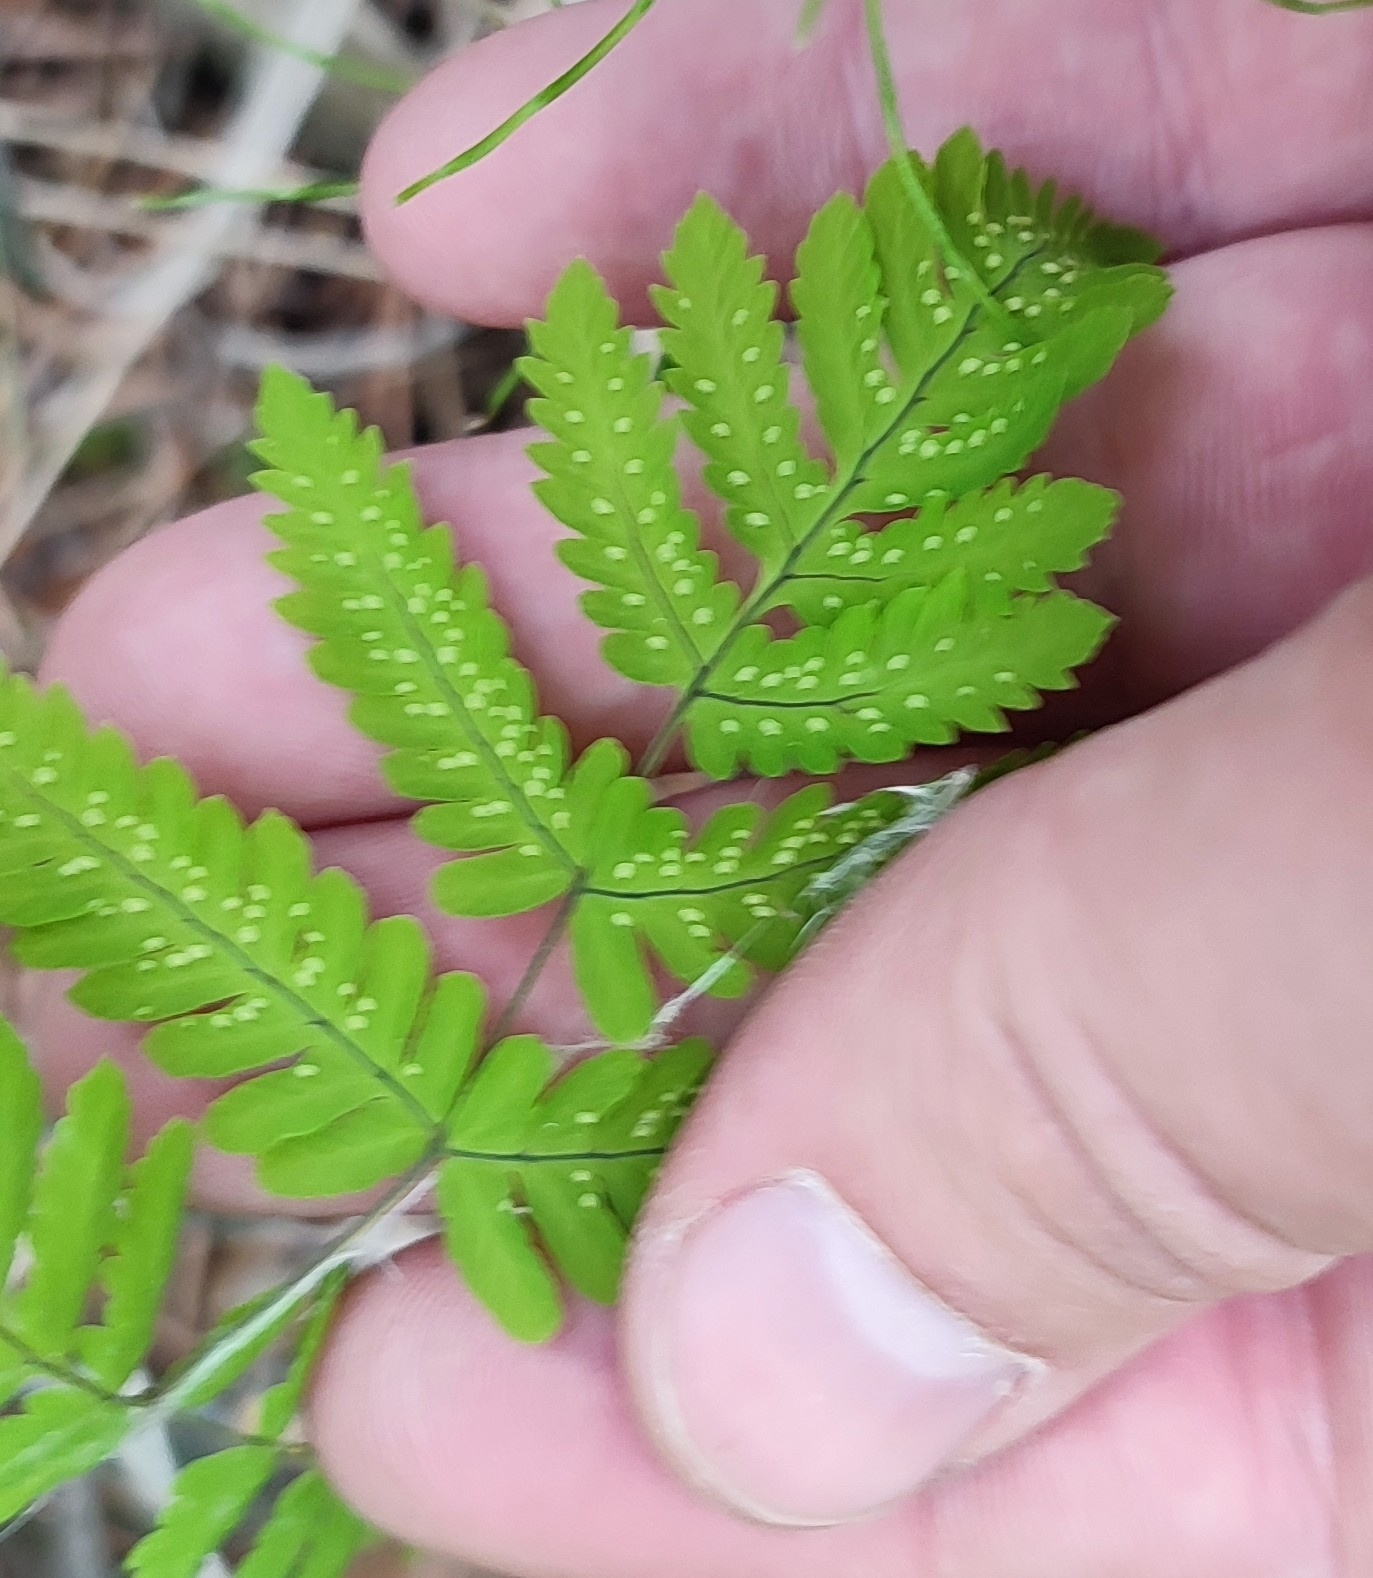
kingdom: Plantae
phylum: Tracheophyta
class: Polypodiopsida
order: Polypodiales
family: Cystopteridaceae
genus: Gymnocarpium
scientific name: Gymnocarpium dryopteris
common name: Oak fern
